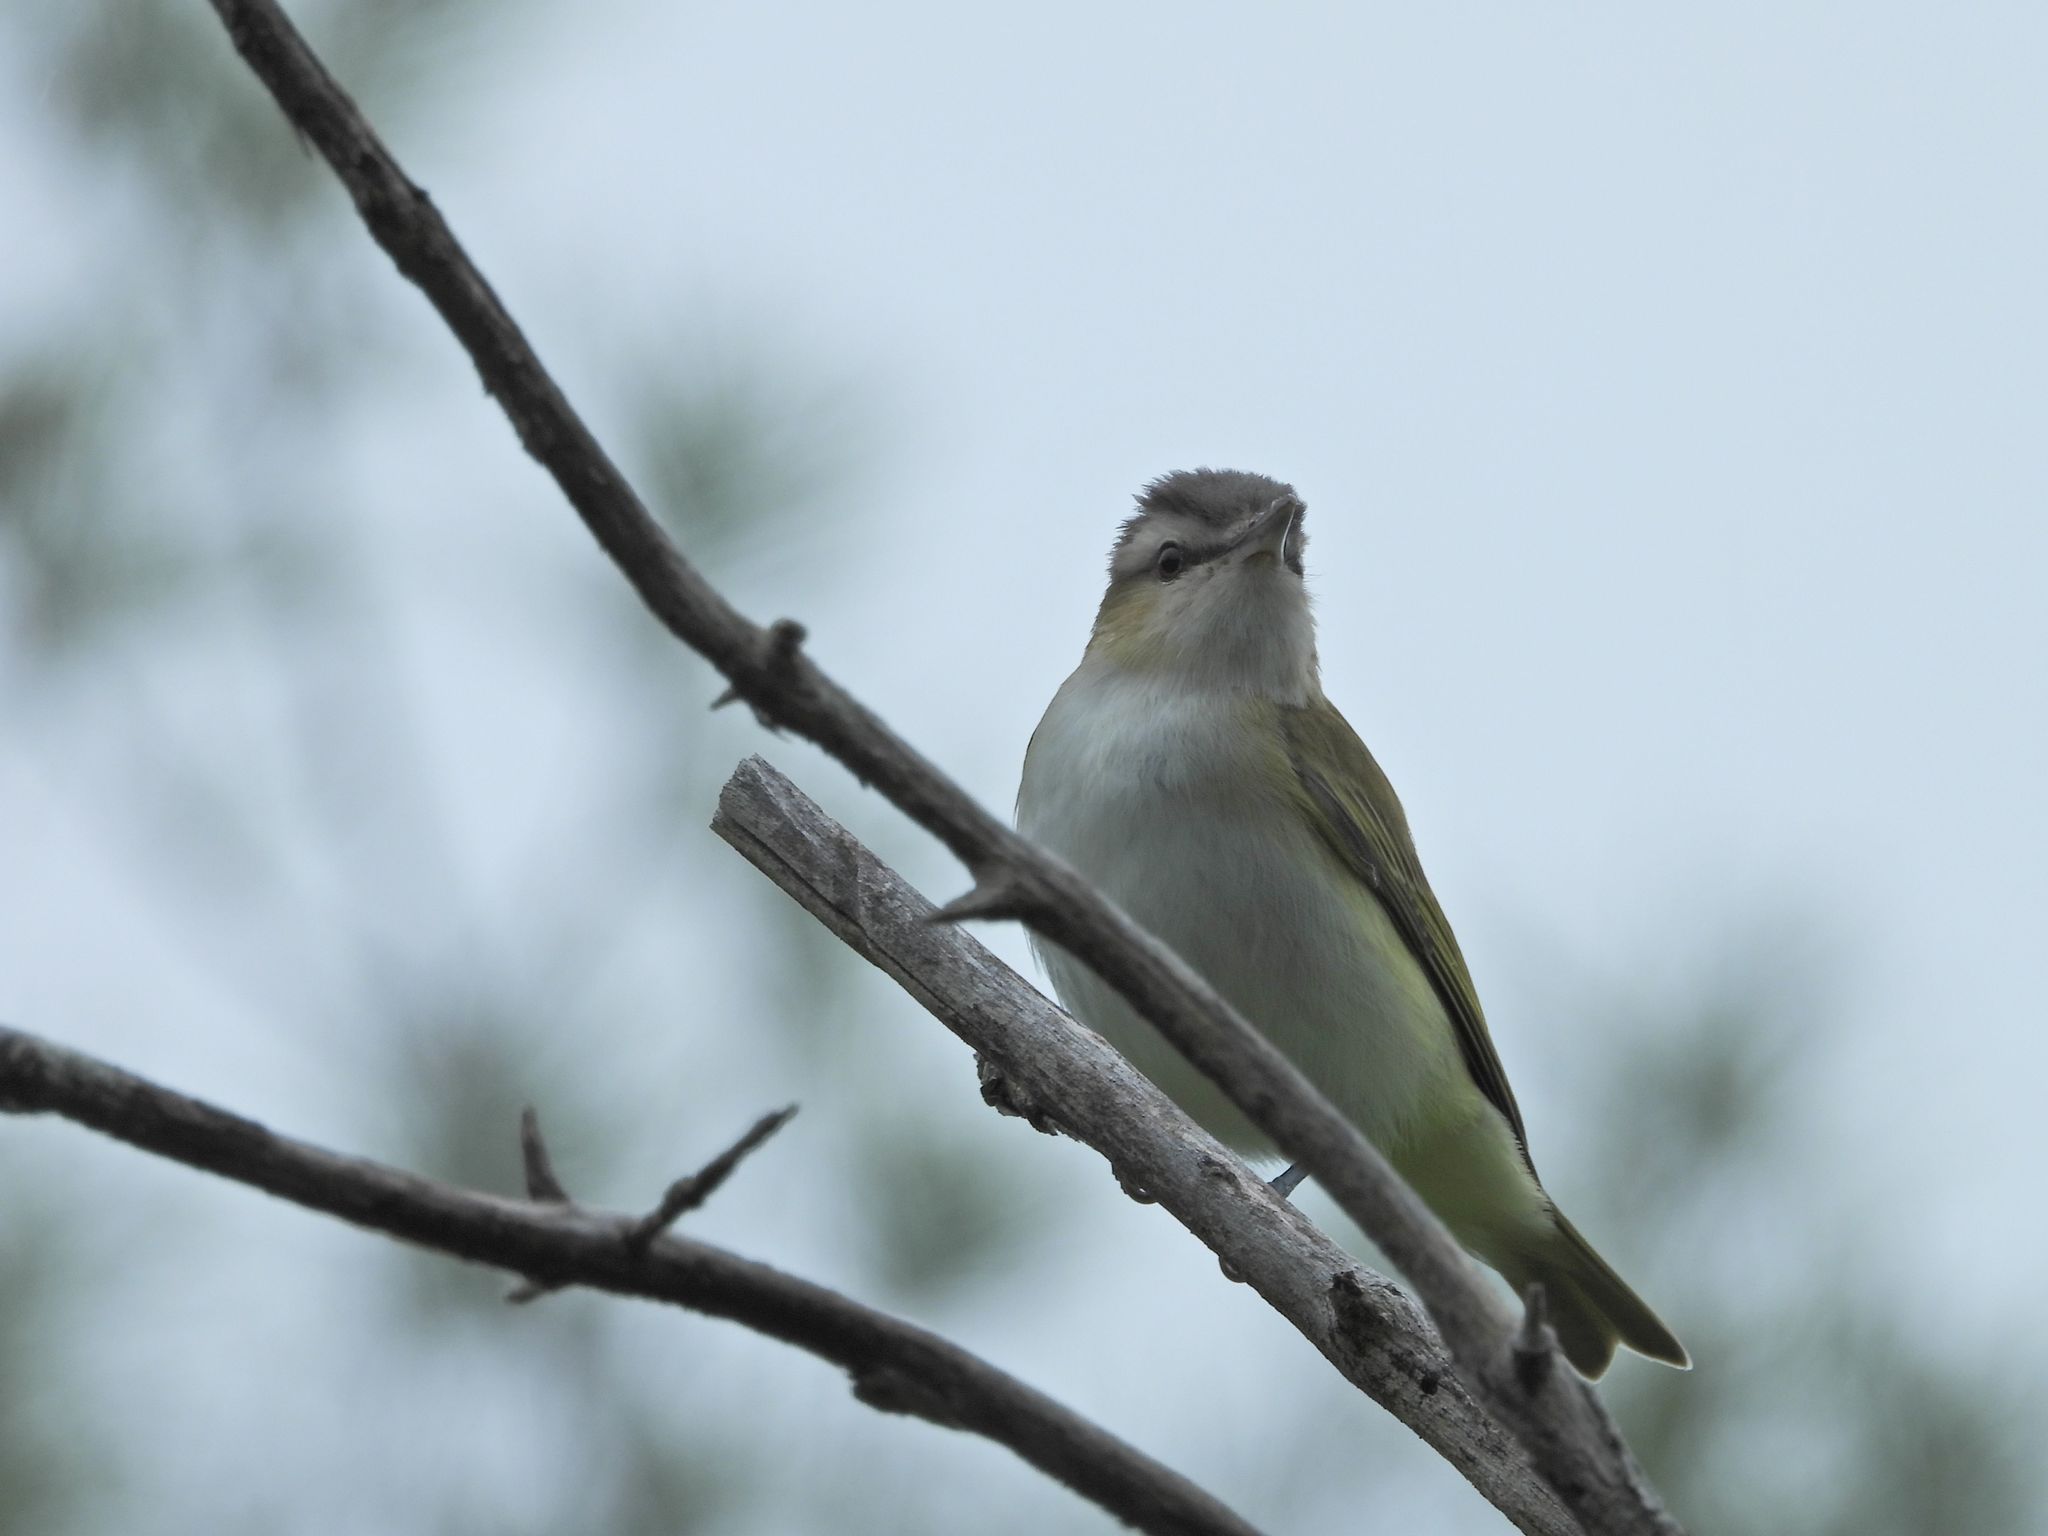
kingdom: Animalia
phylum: Chordata
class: Aves
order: Passeriformes
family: Vireonidae
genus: Vireo
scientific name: Vireo olivaceus
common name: Red-eyed vireo
